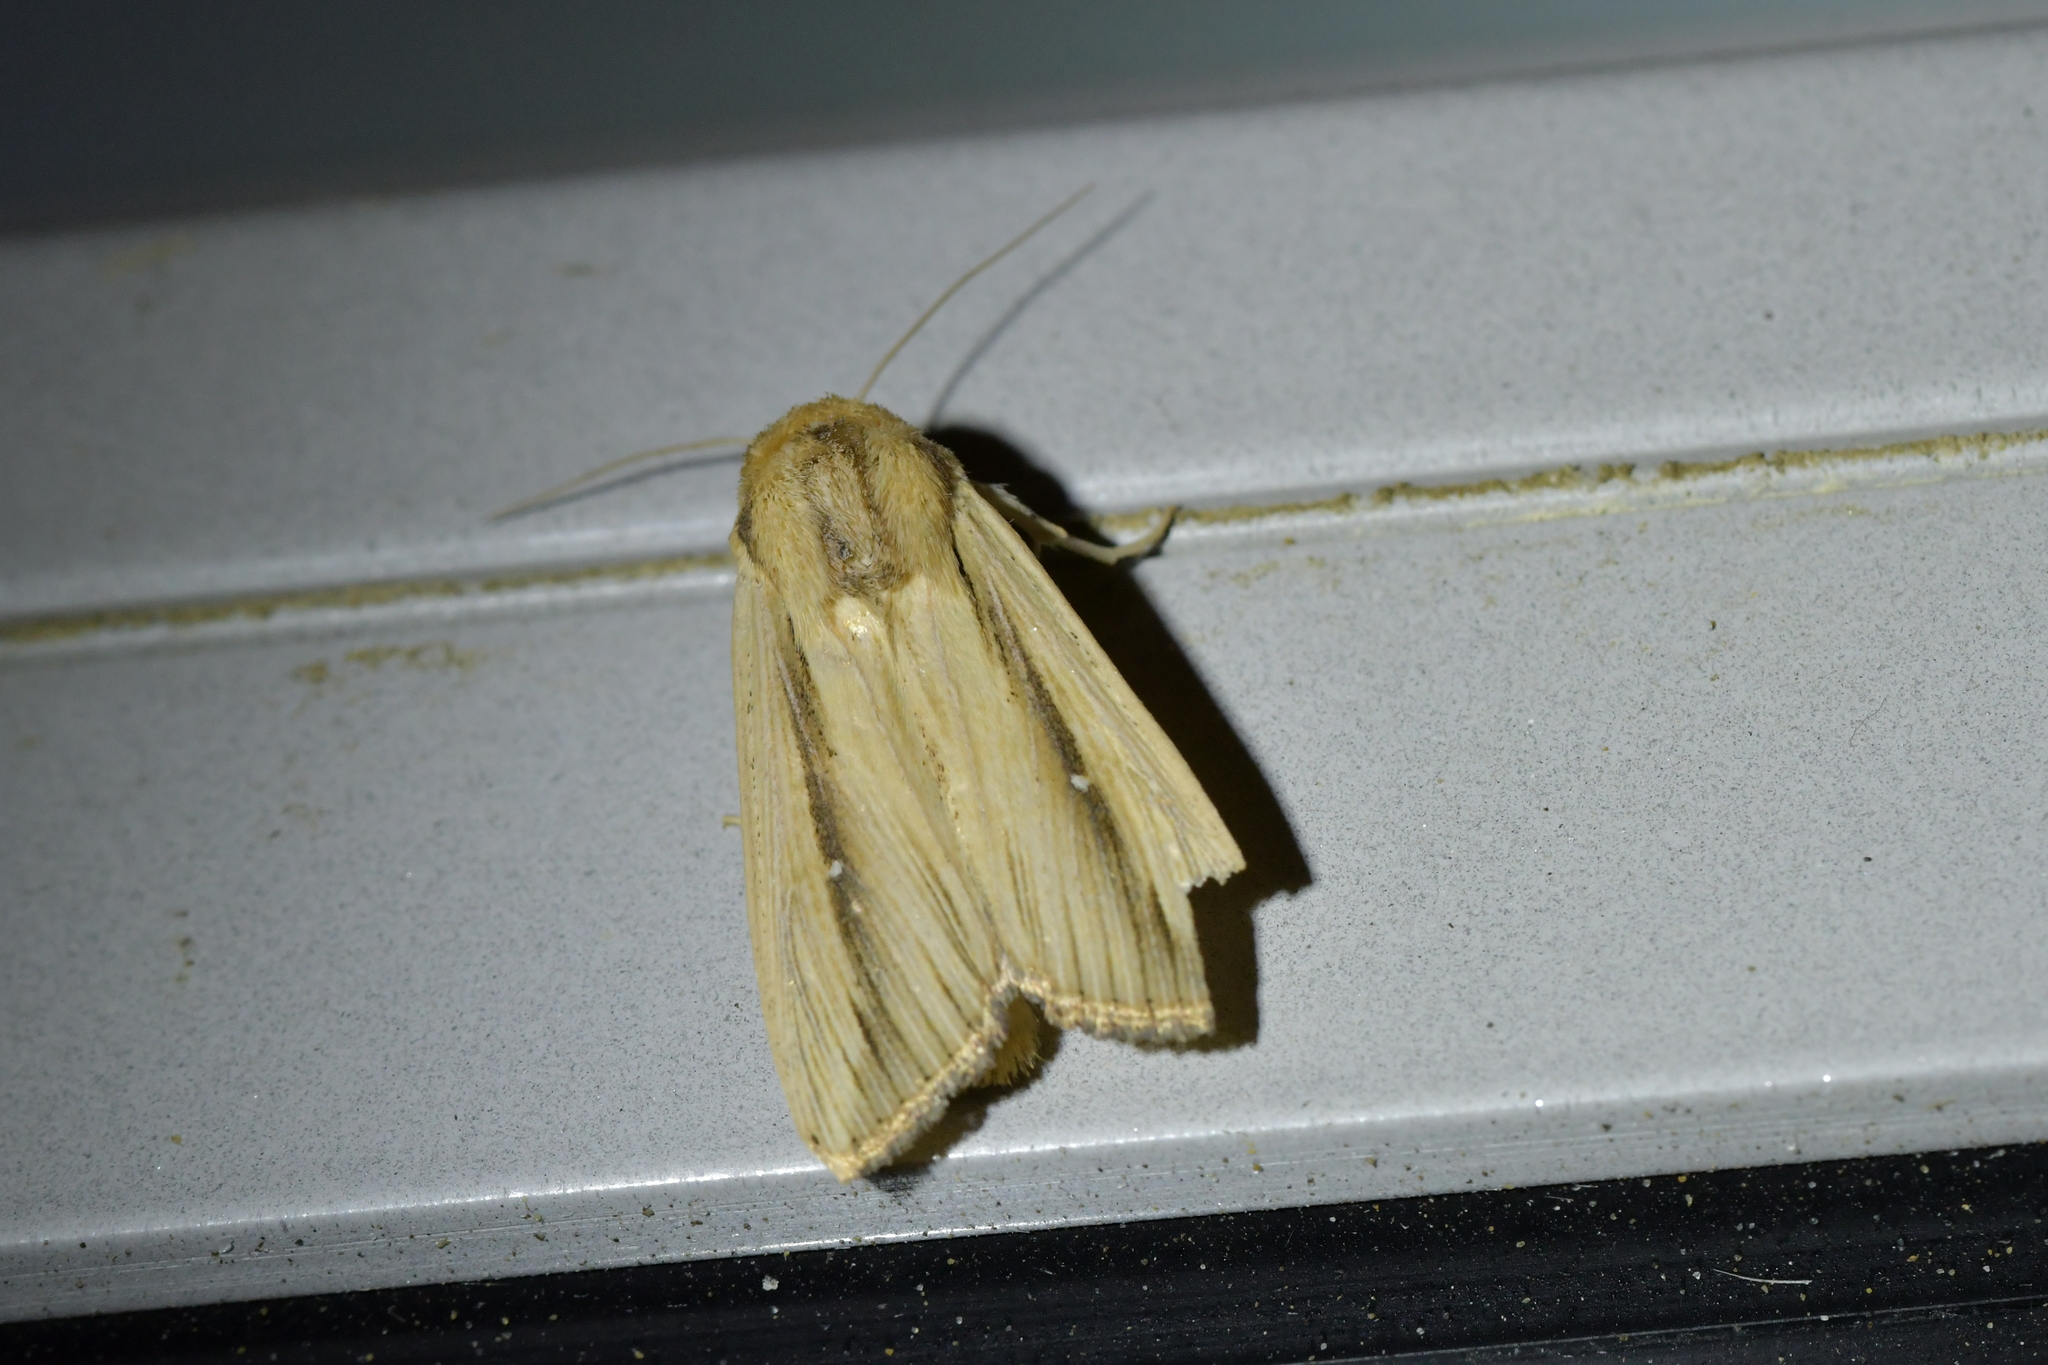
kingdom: Animalia
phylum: Arthropoda
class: Insecta
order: Lepidoptera
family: Noctuidae
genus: Leucania
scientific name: Leucania stenographa
